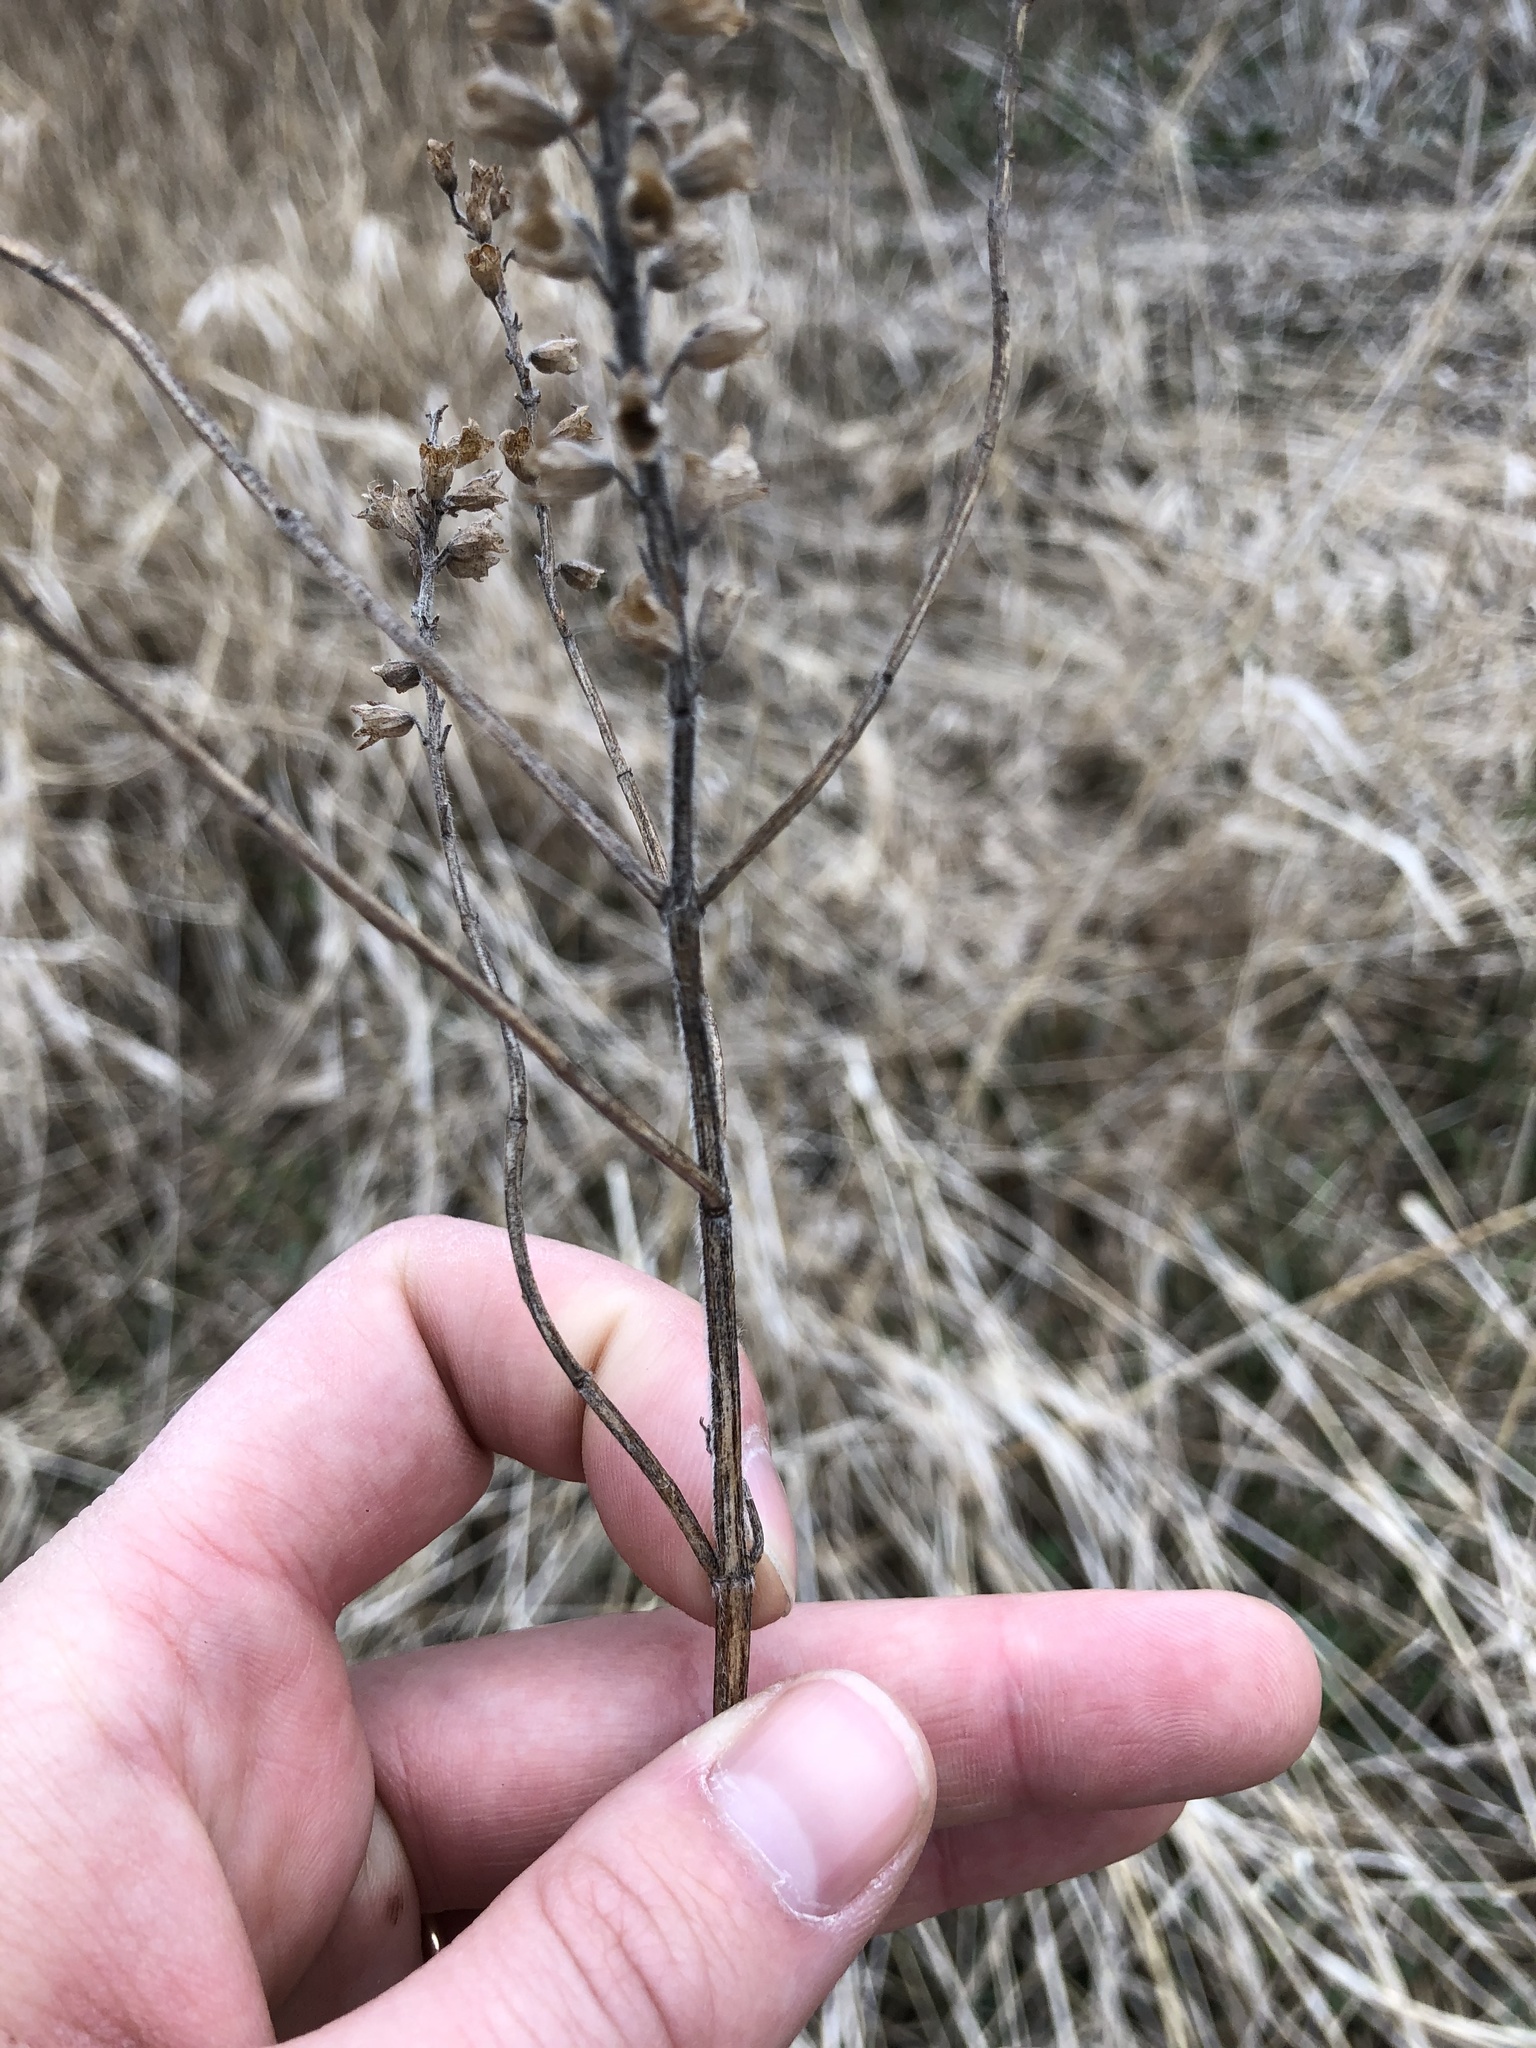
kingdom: Plantae
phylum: Tracheophyta
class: Magnoliopsida
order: Lamiales
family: Lamiaceae
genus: Teucrium
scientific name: Teucrium canadense
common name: American germander
